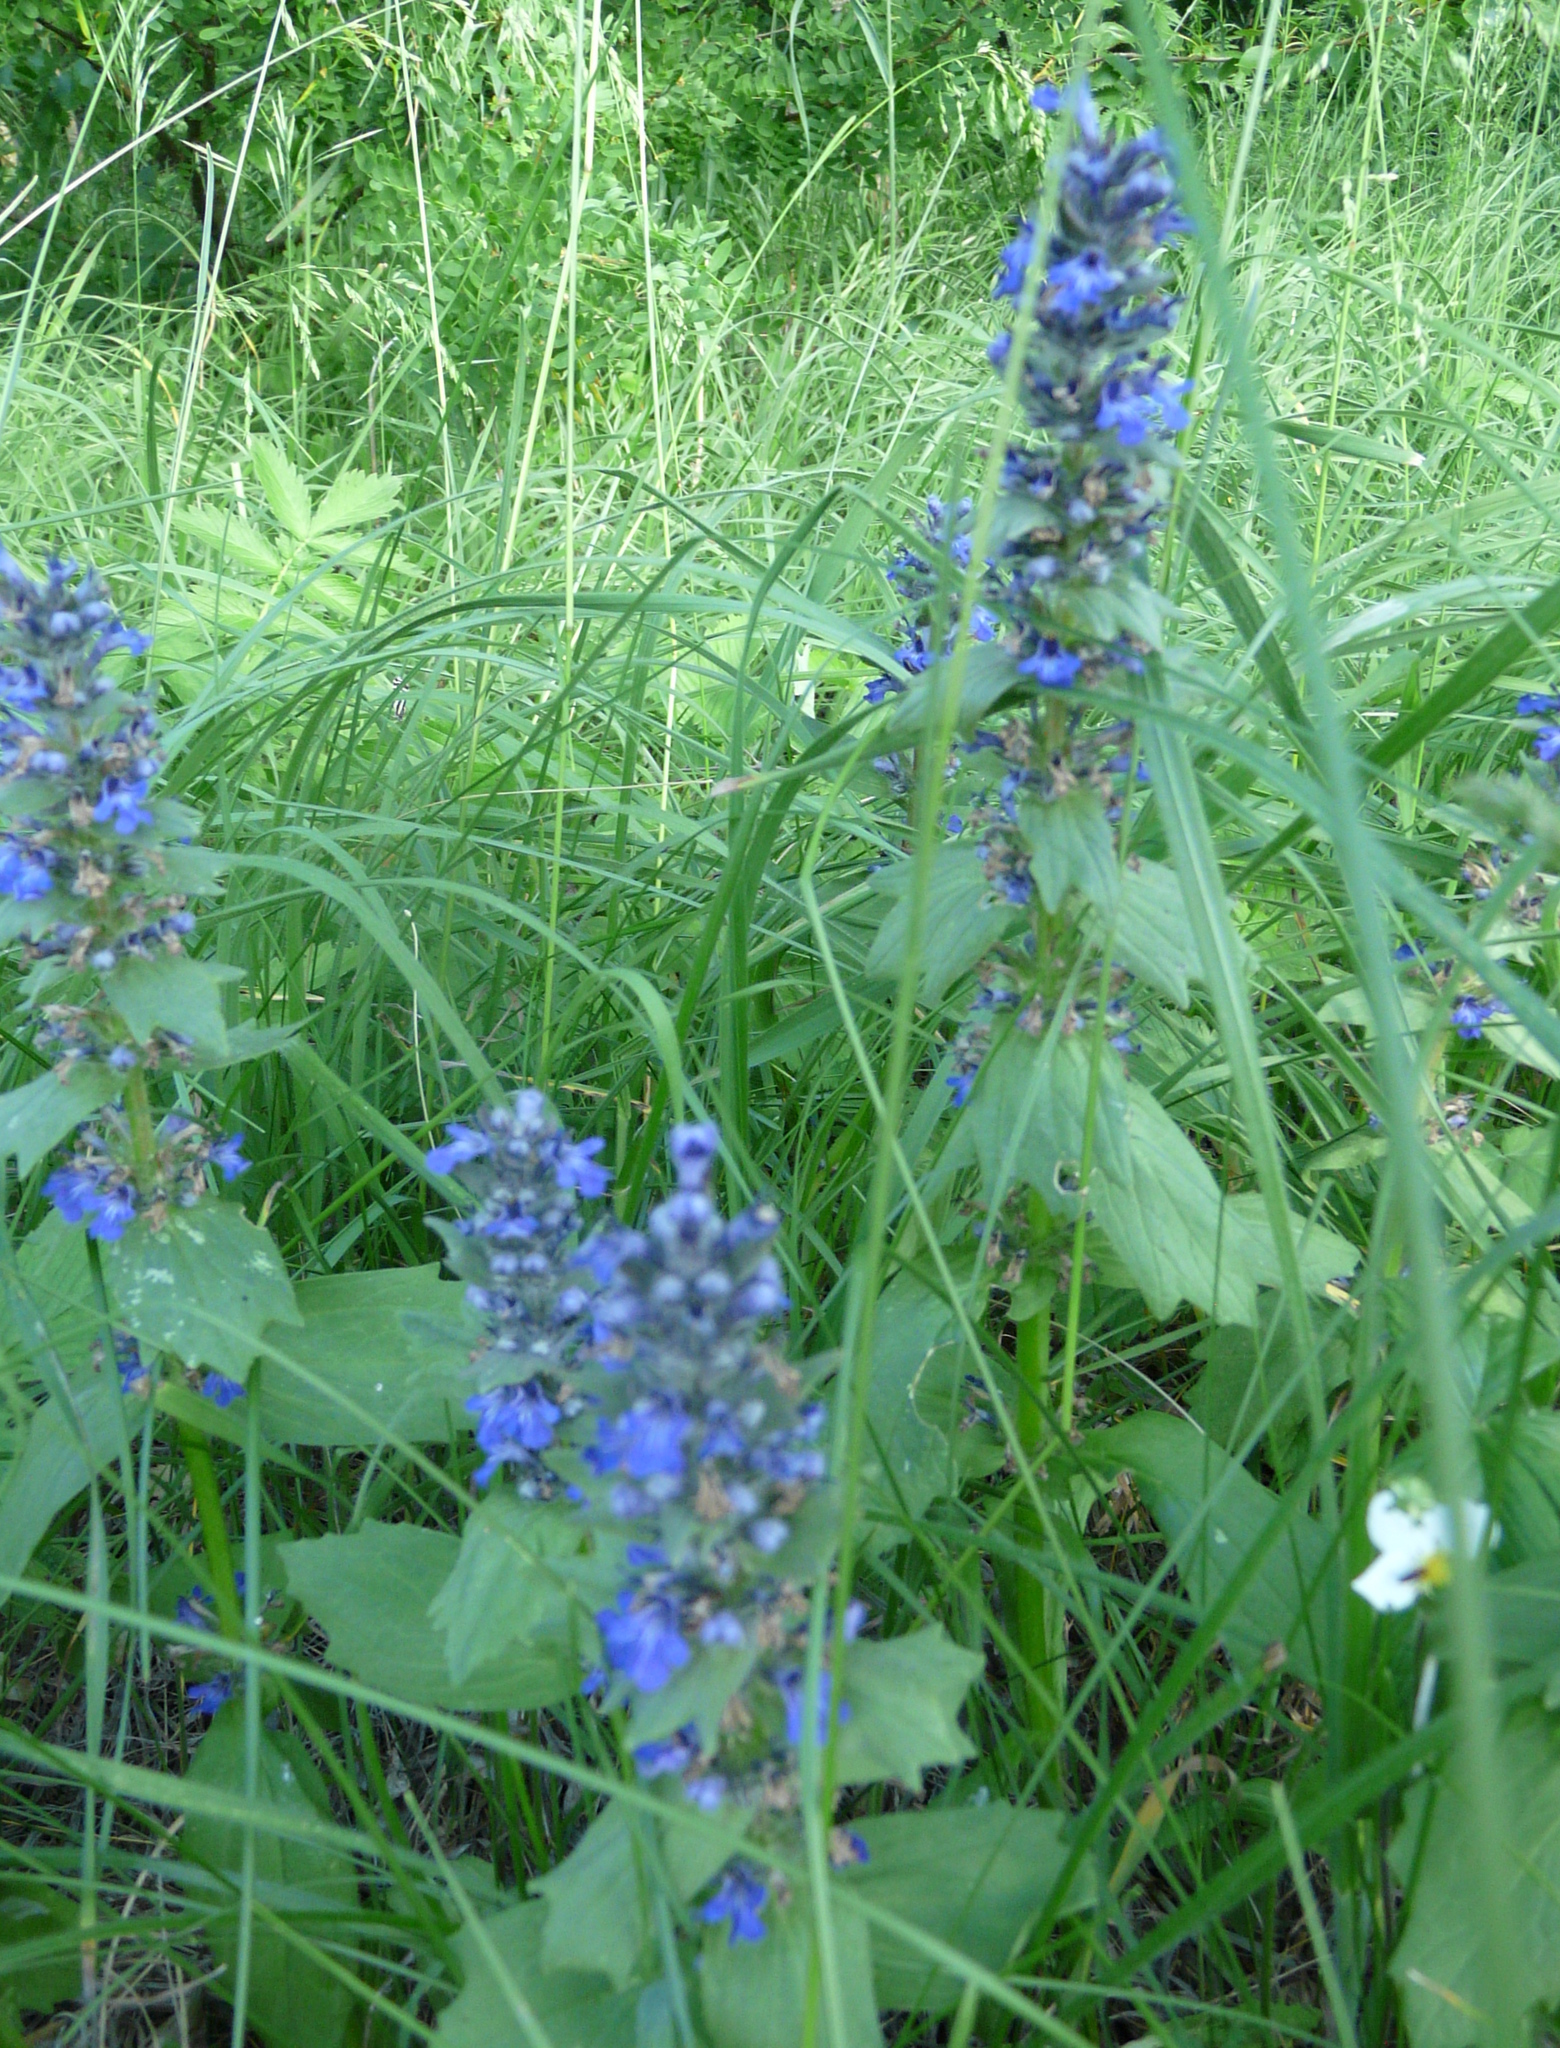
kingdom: Plantae
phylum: Tracheophyta
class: Magnoliopsida
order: Lamiales
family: Lamiaceae
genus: Ajuga
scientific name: Ajuga genevensis
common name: Blue bugle
